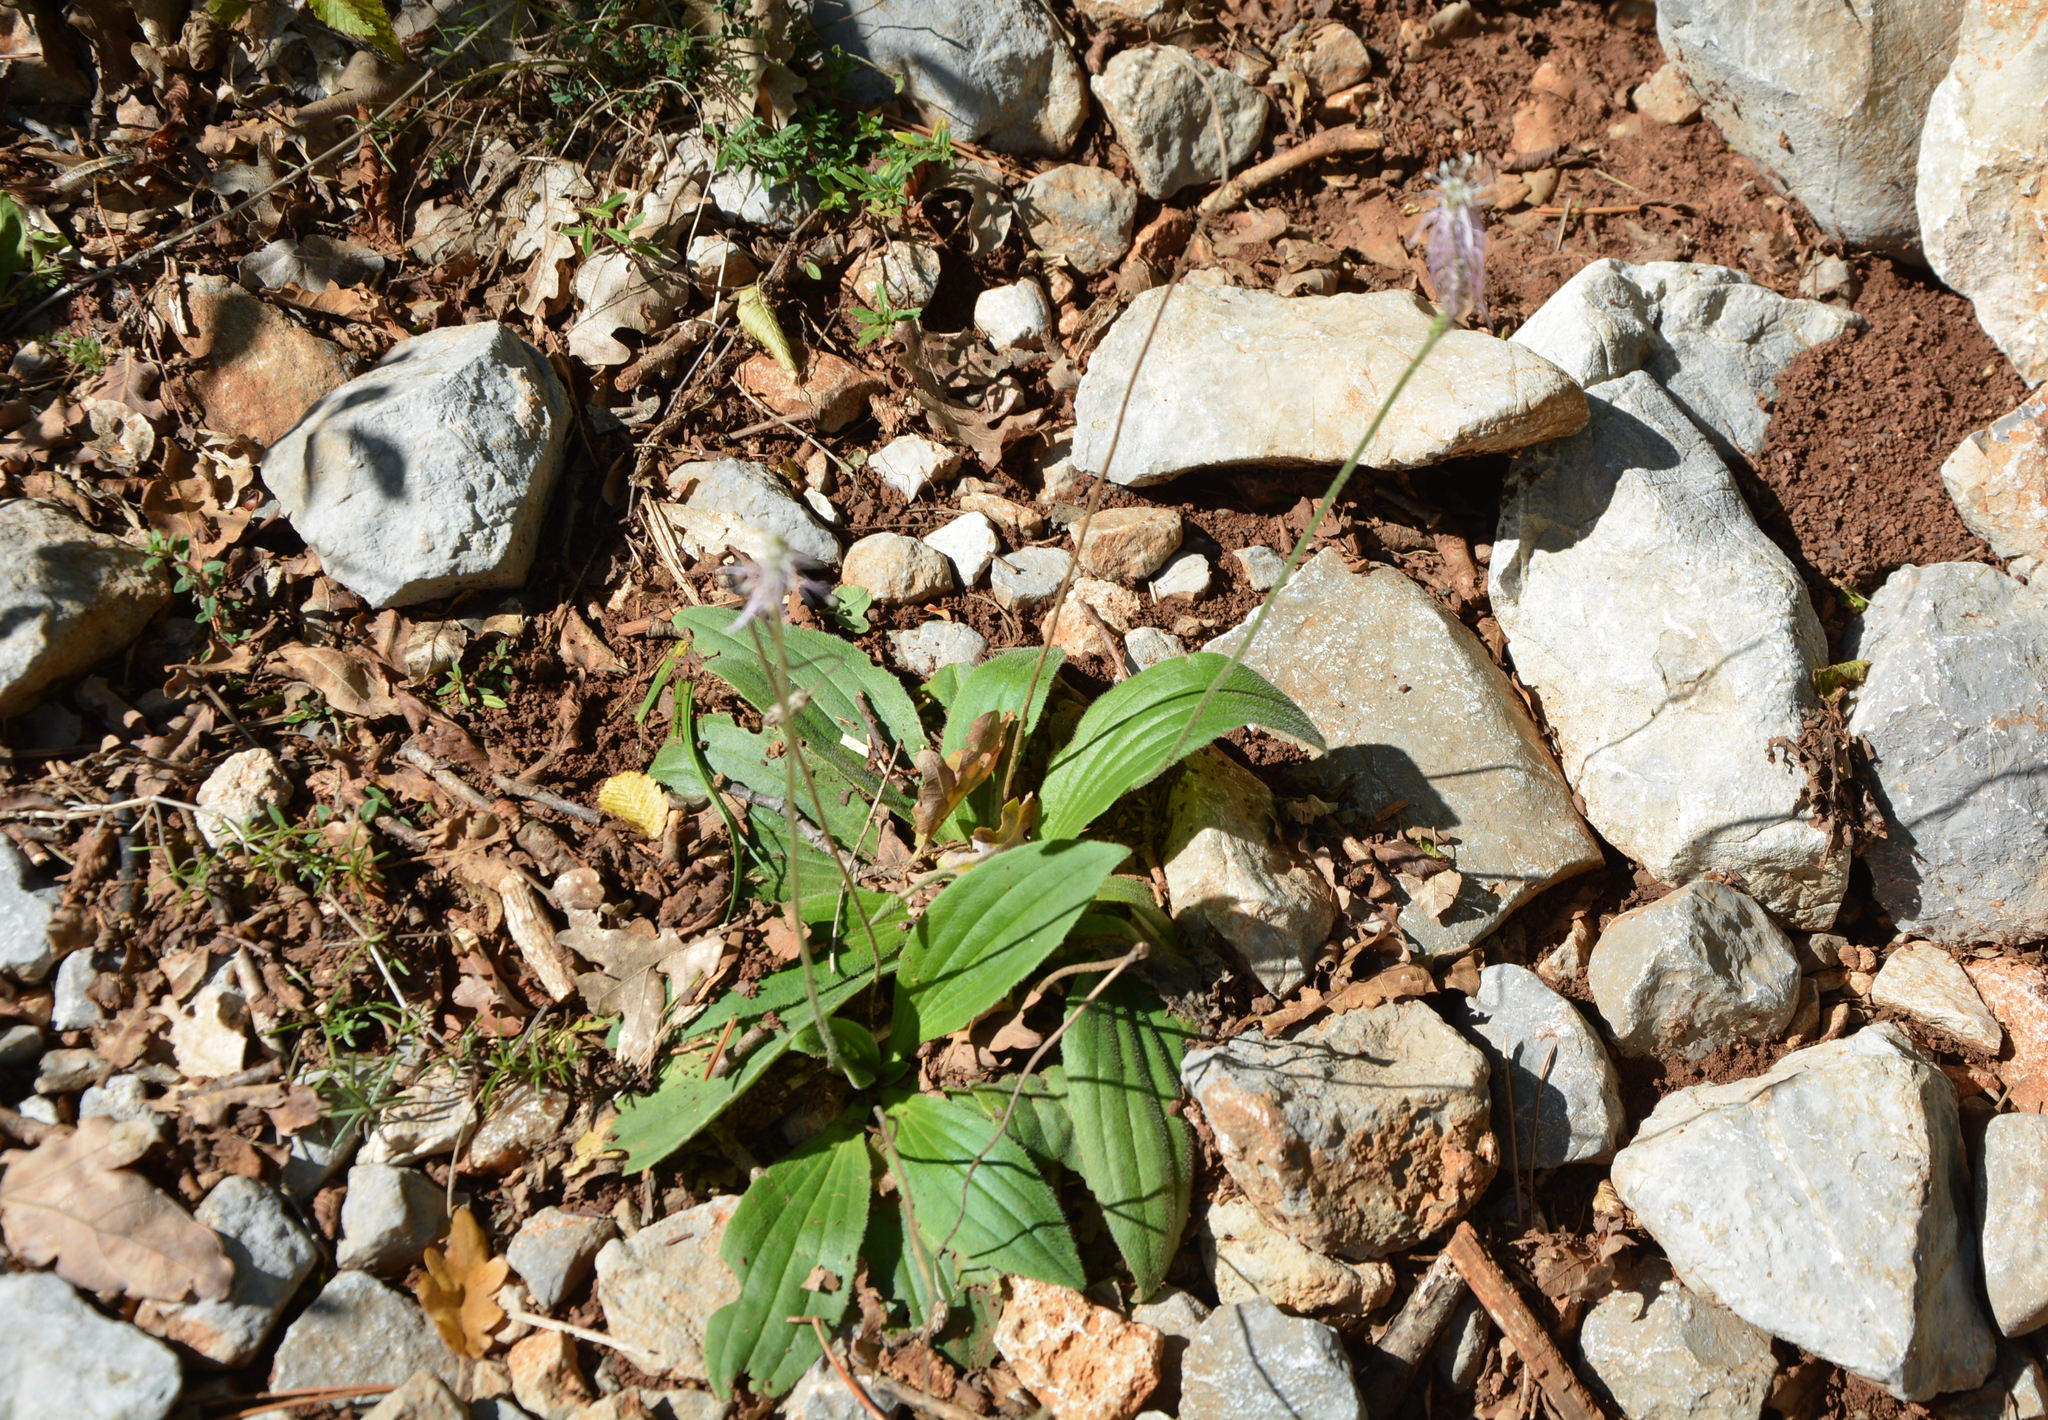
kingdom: Plantae
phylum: Tracheophyta
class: Magnoliopsida
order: Lamiales
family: Plantaginaceae
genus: Plantago
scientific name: Plantago media
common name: Hoary plantain
